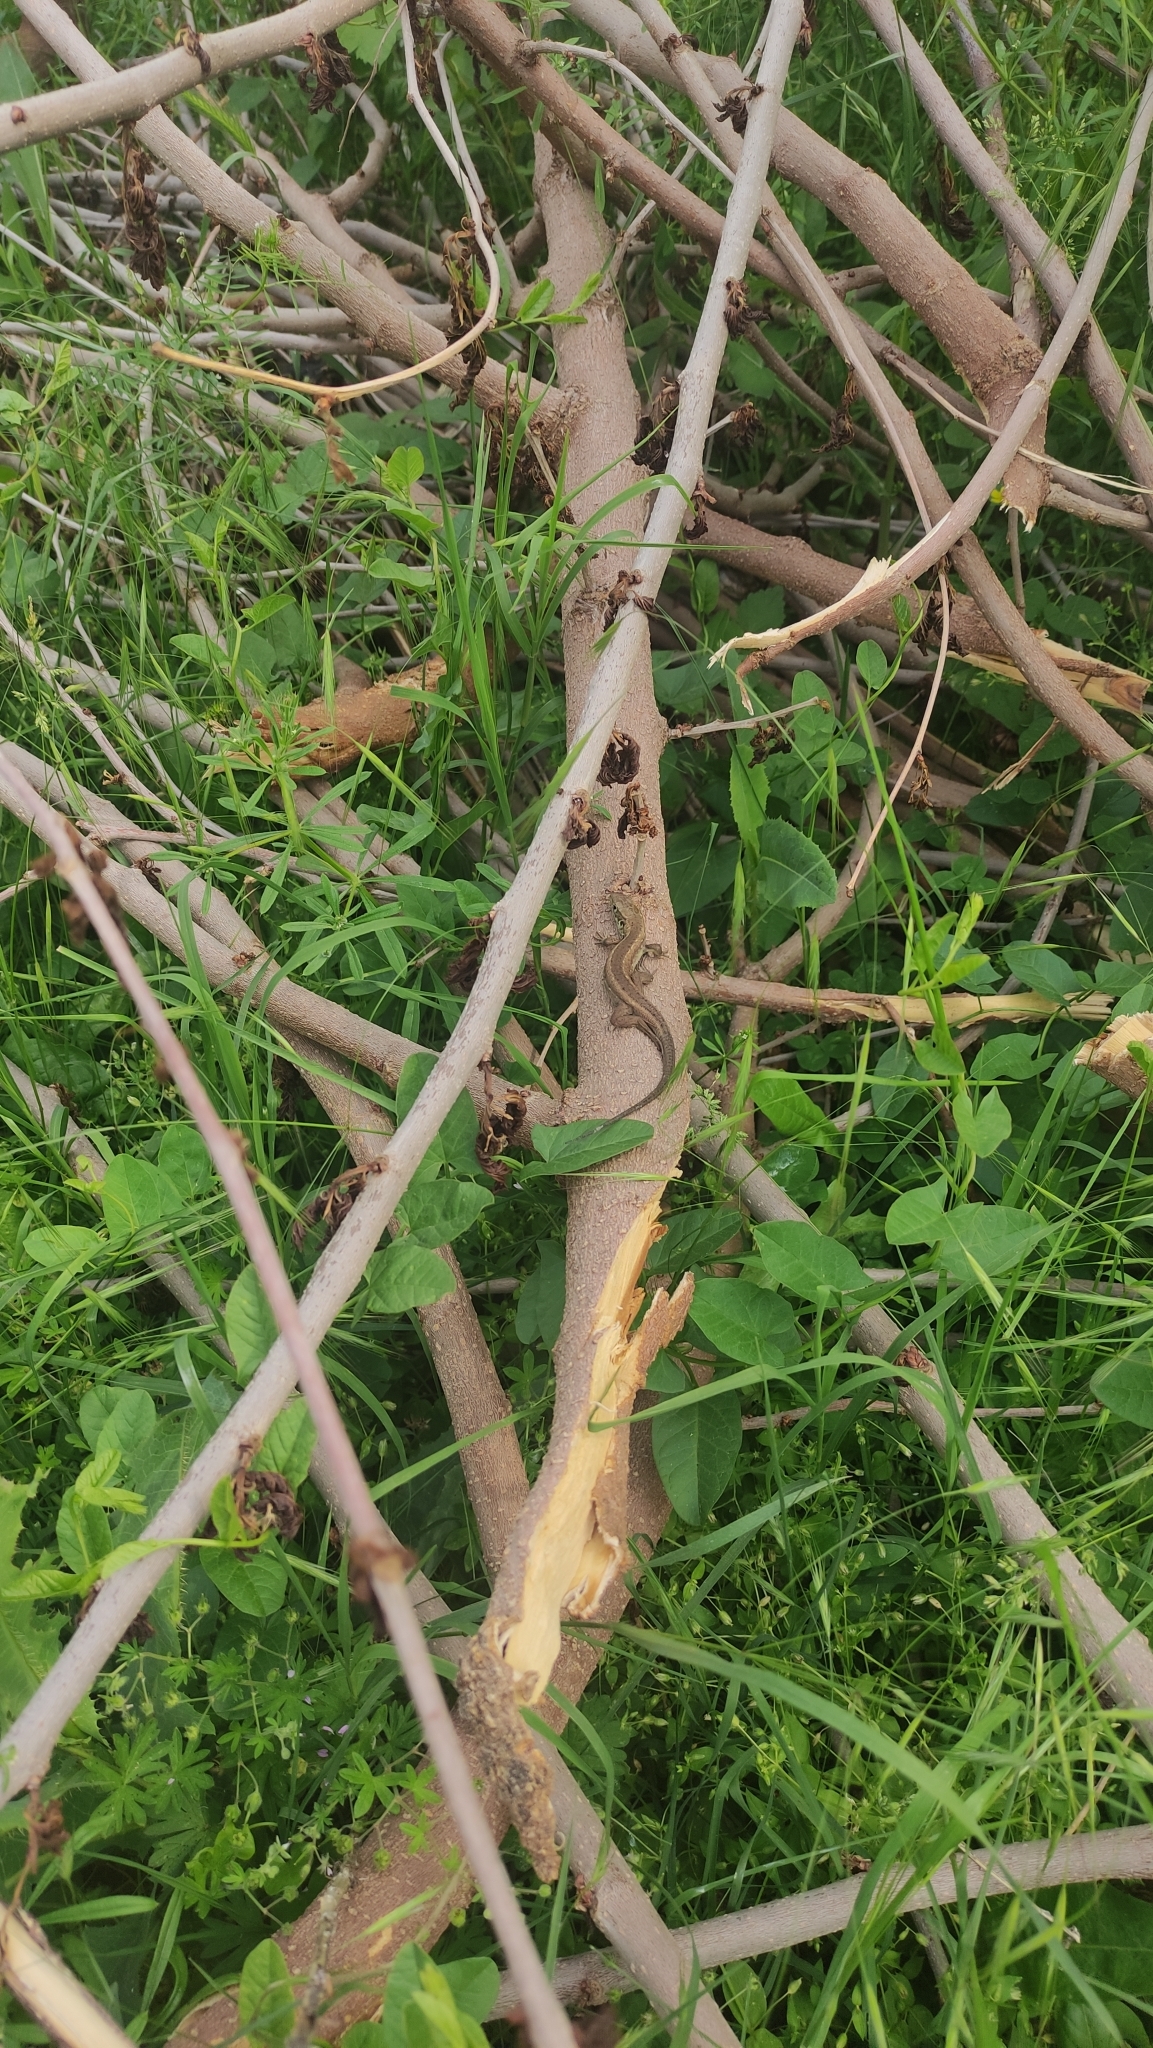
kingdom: Animalia
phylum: Chordata
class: Squamata
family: Lacertidae
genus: Lacerta
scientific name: Lacerta viridis
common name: European green lizard
